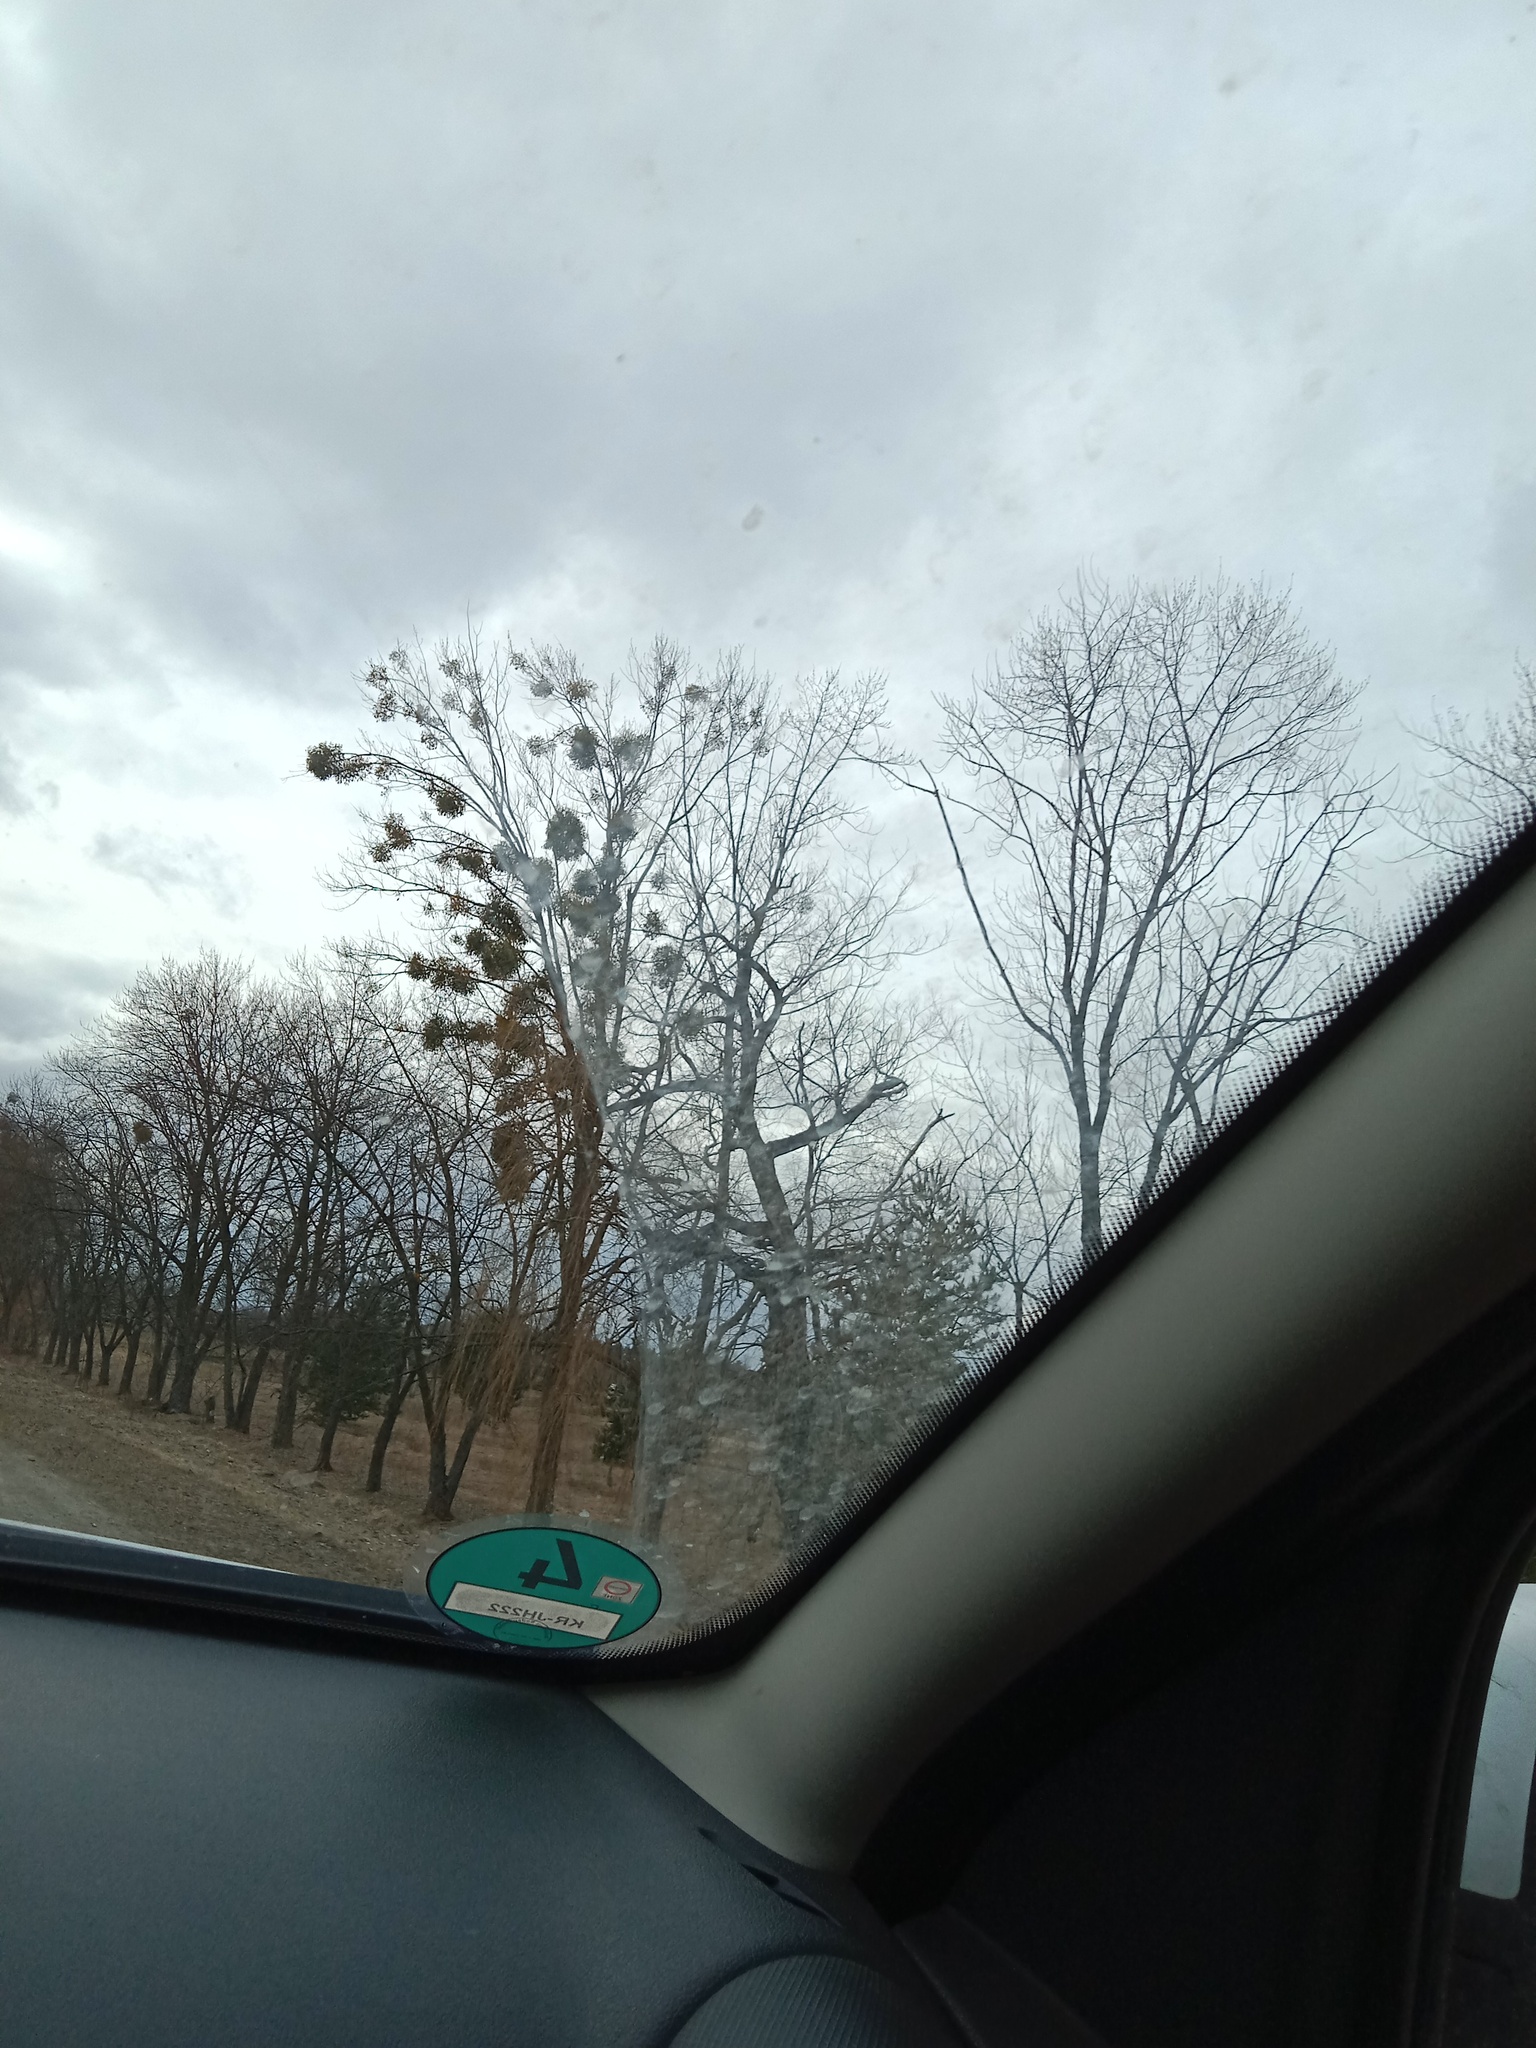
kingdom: Plantae
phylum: Tracheophyta
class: Magnoliopsida
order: Santalales
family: Viscaceae
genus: Viscum
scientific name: Viscum album
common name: Mistletoe
